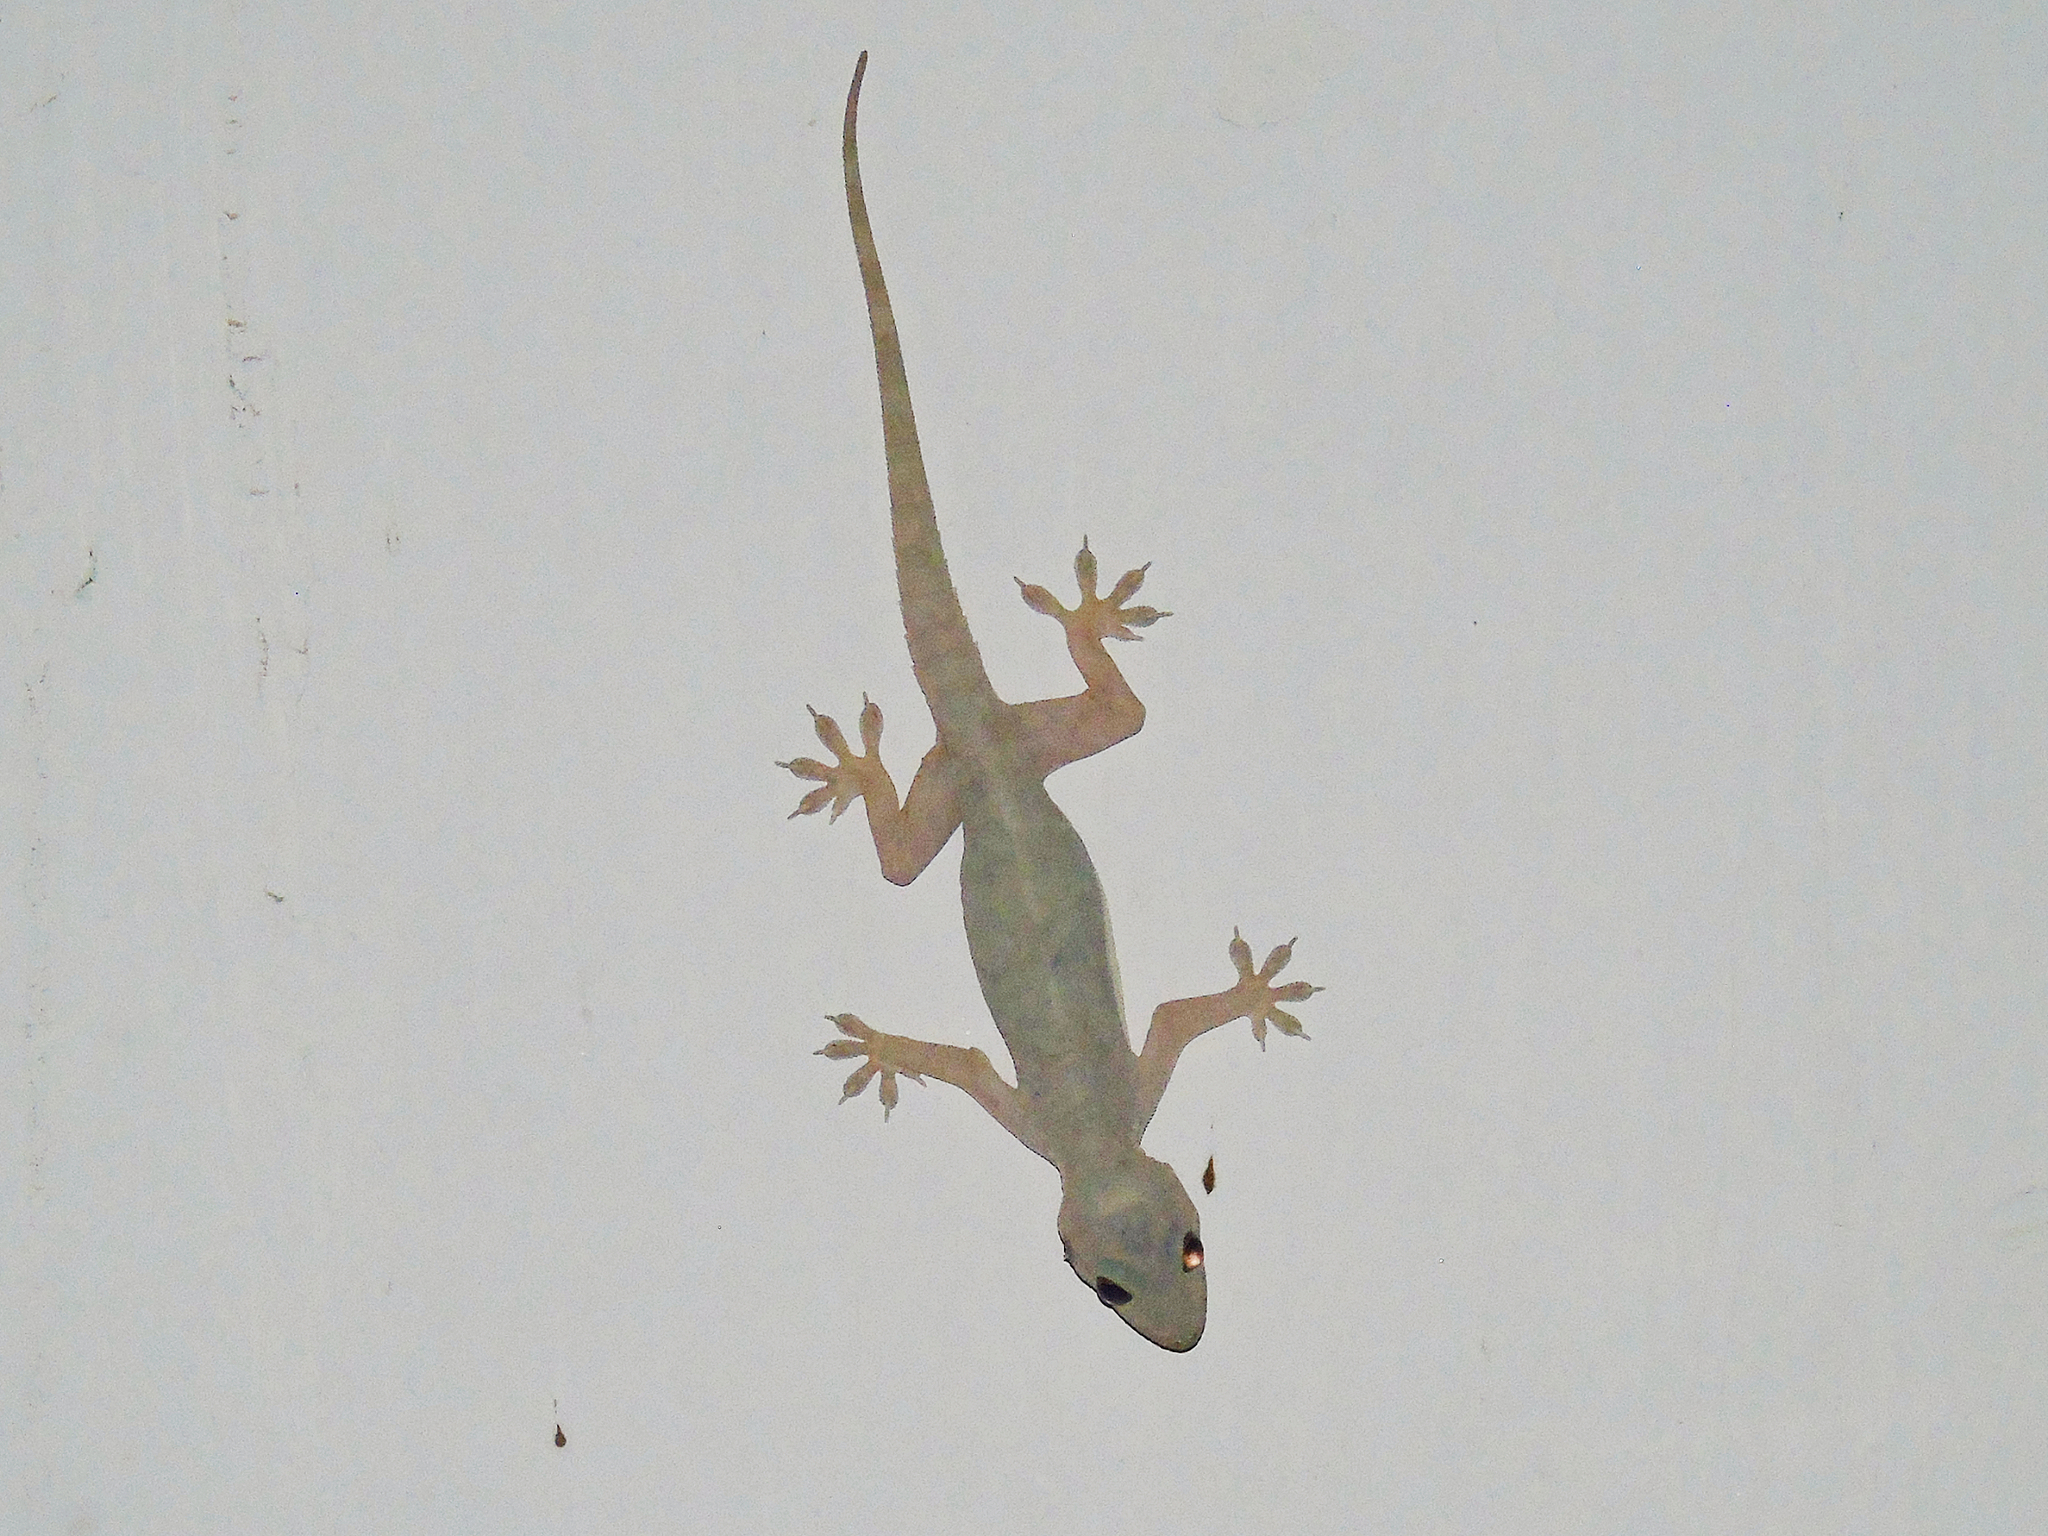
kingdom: Animalia
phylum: Chordata
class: Squamata
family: Gekkonidae
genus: Hemidactylus
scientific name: Hemidactylus flaviviridis
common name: Northern house gecko
